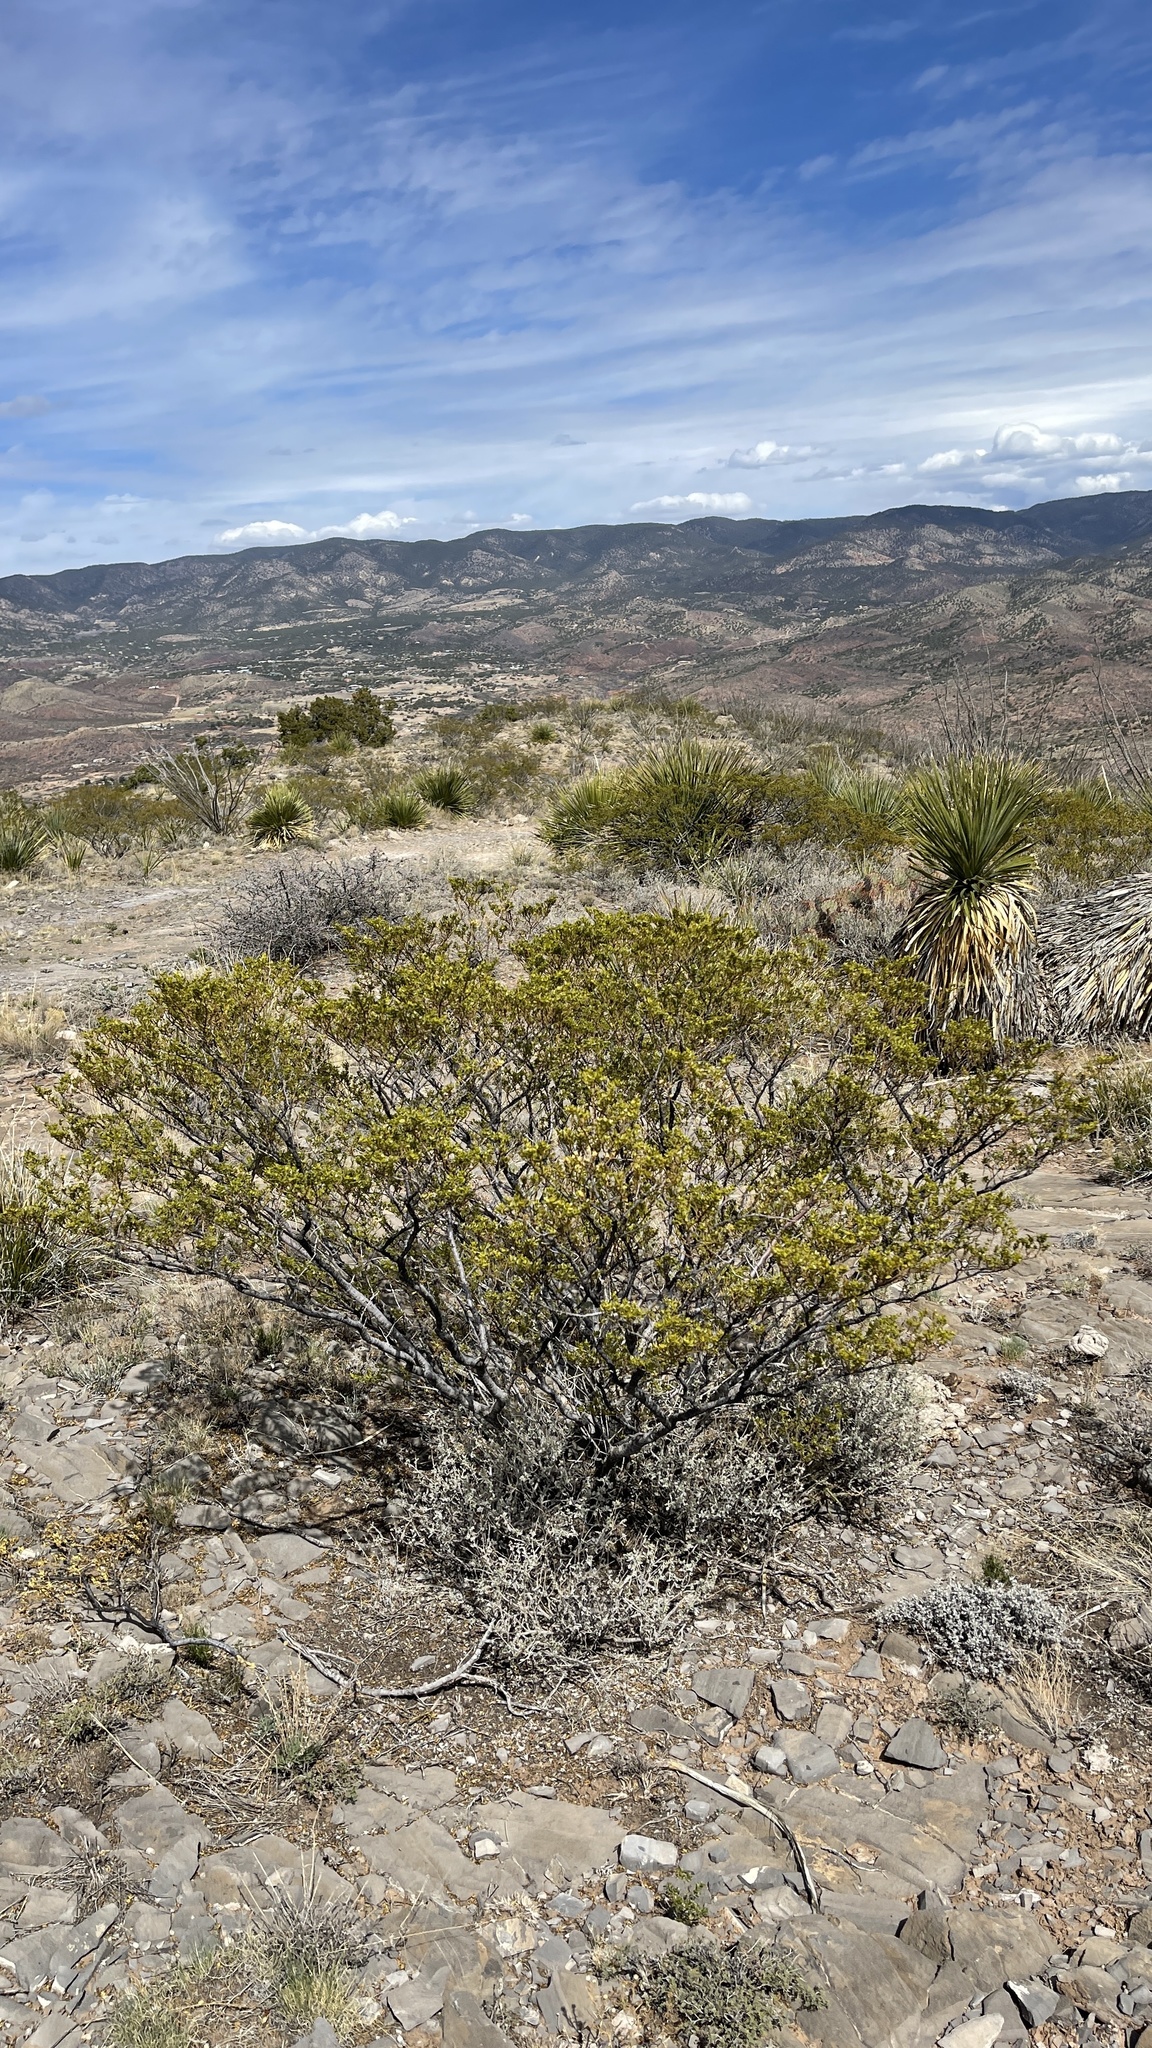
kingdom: Plantae
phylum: Tracheophyta
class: Magnoliopsida
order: Zygophyllales
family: Zygophyllaceae
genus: Larrea
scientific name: Larrea tridentata
